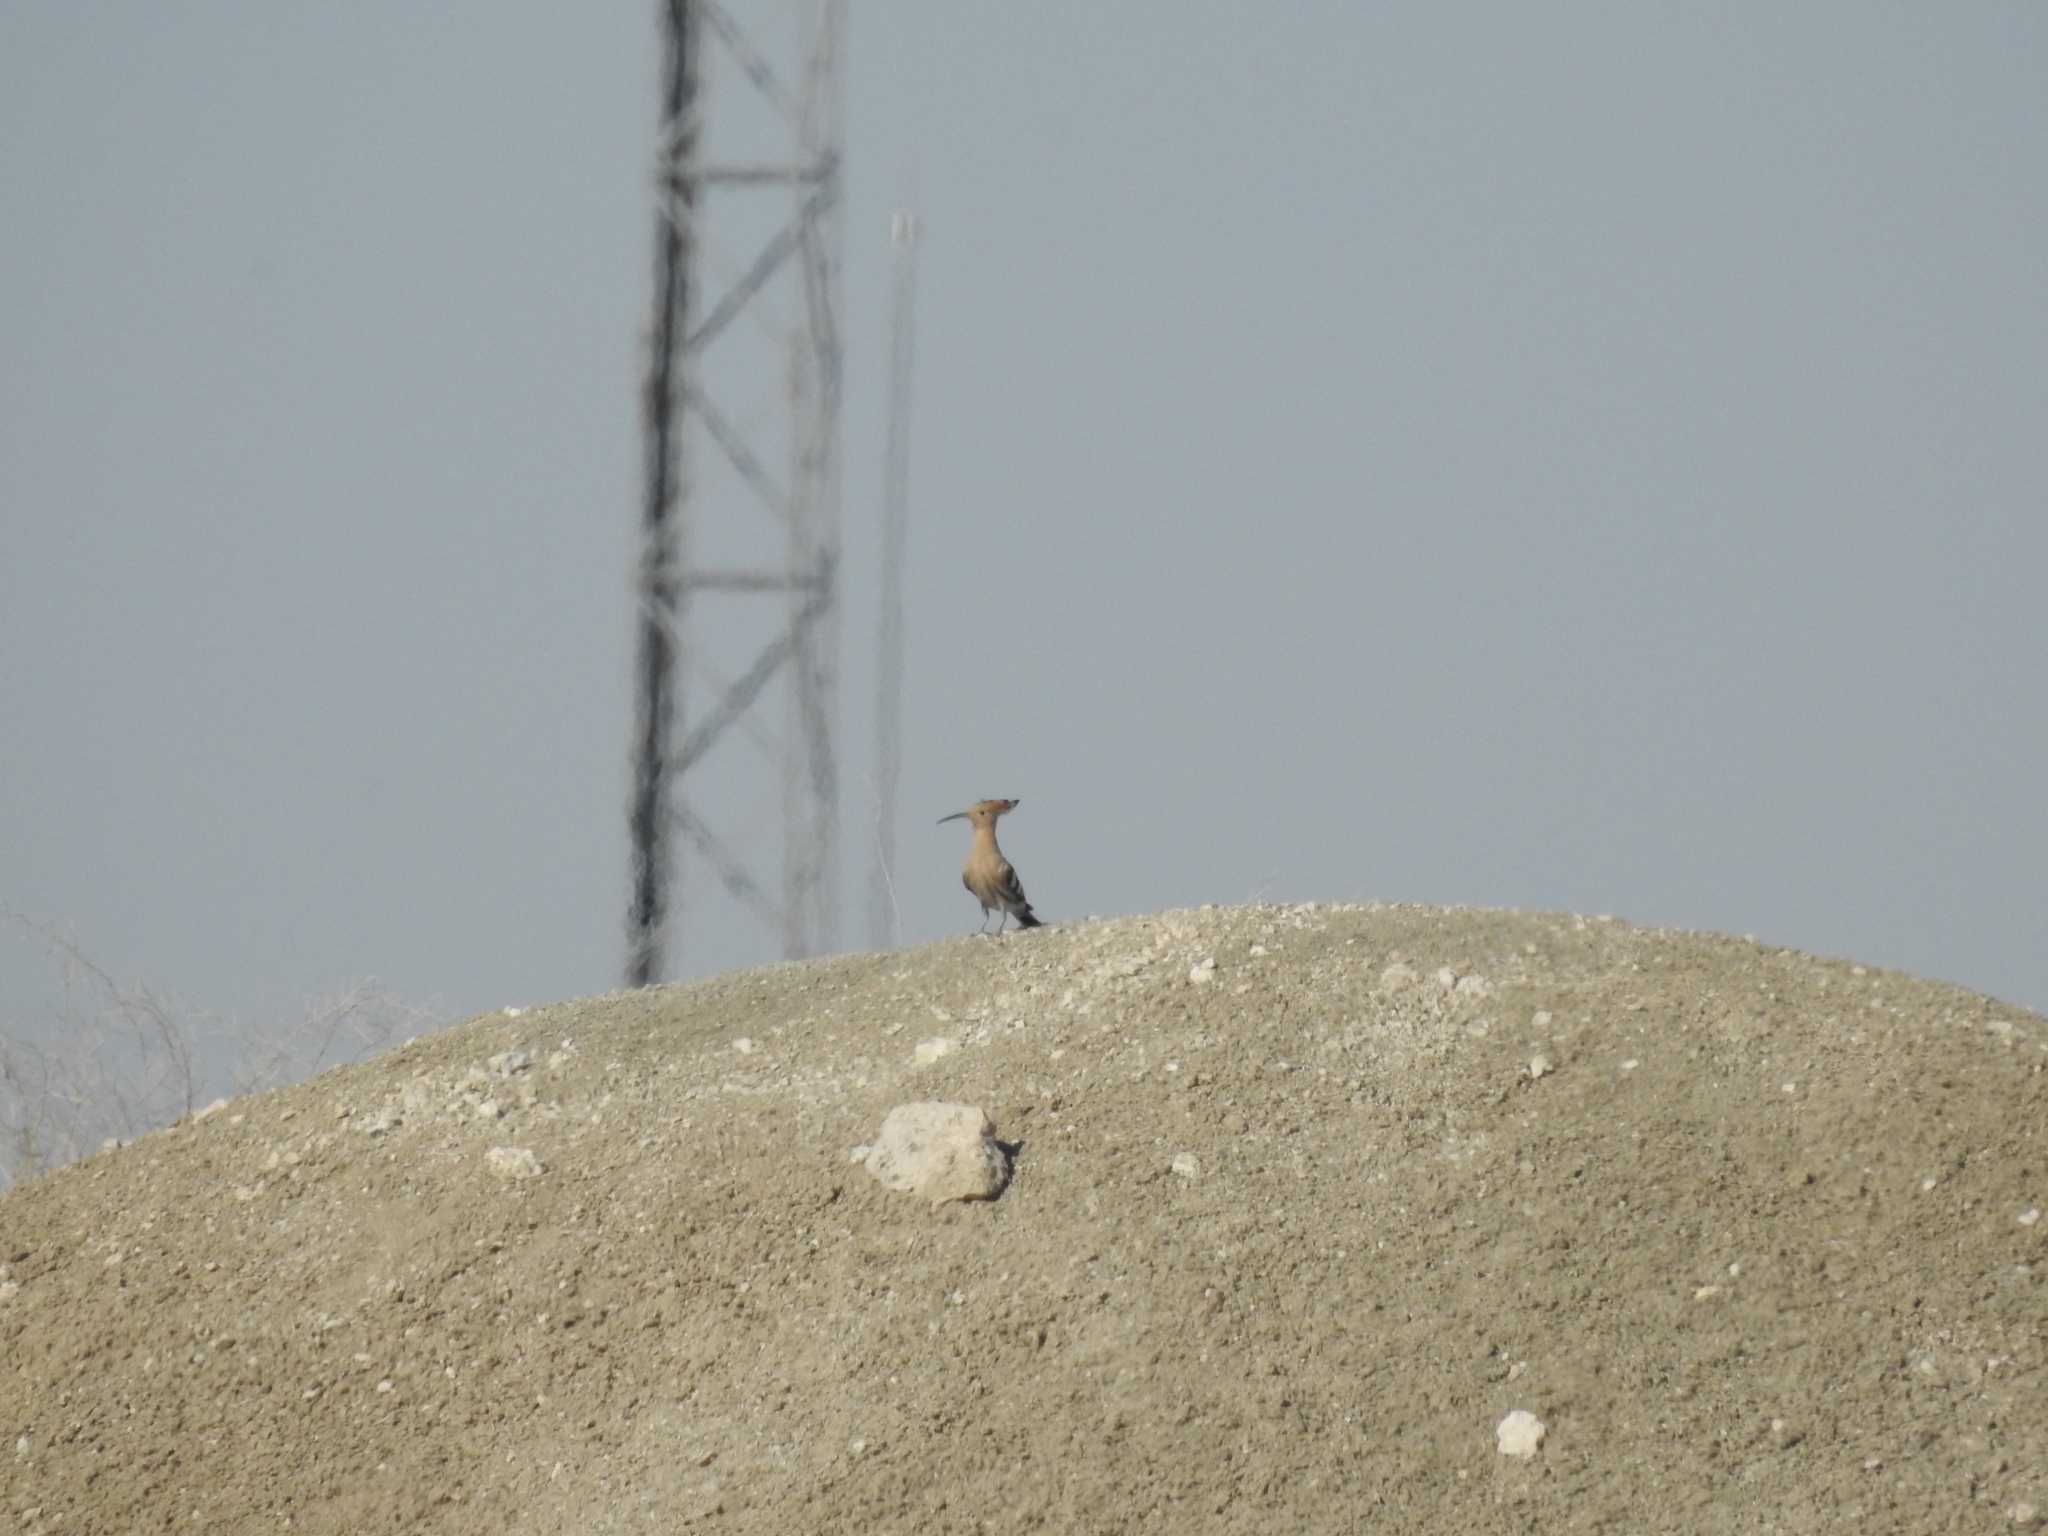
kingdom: Animalia
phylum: Chordata
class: Aves
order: Bucerotiformes
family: Upupidae
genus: Upupa
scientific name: Upupa epops
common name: Eurasian hoopoe
